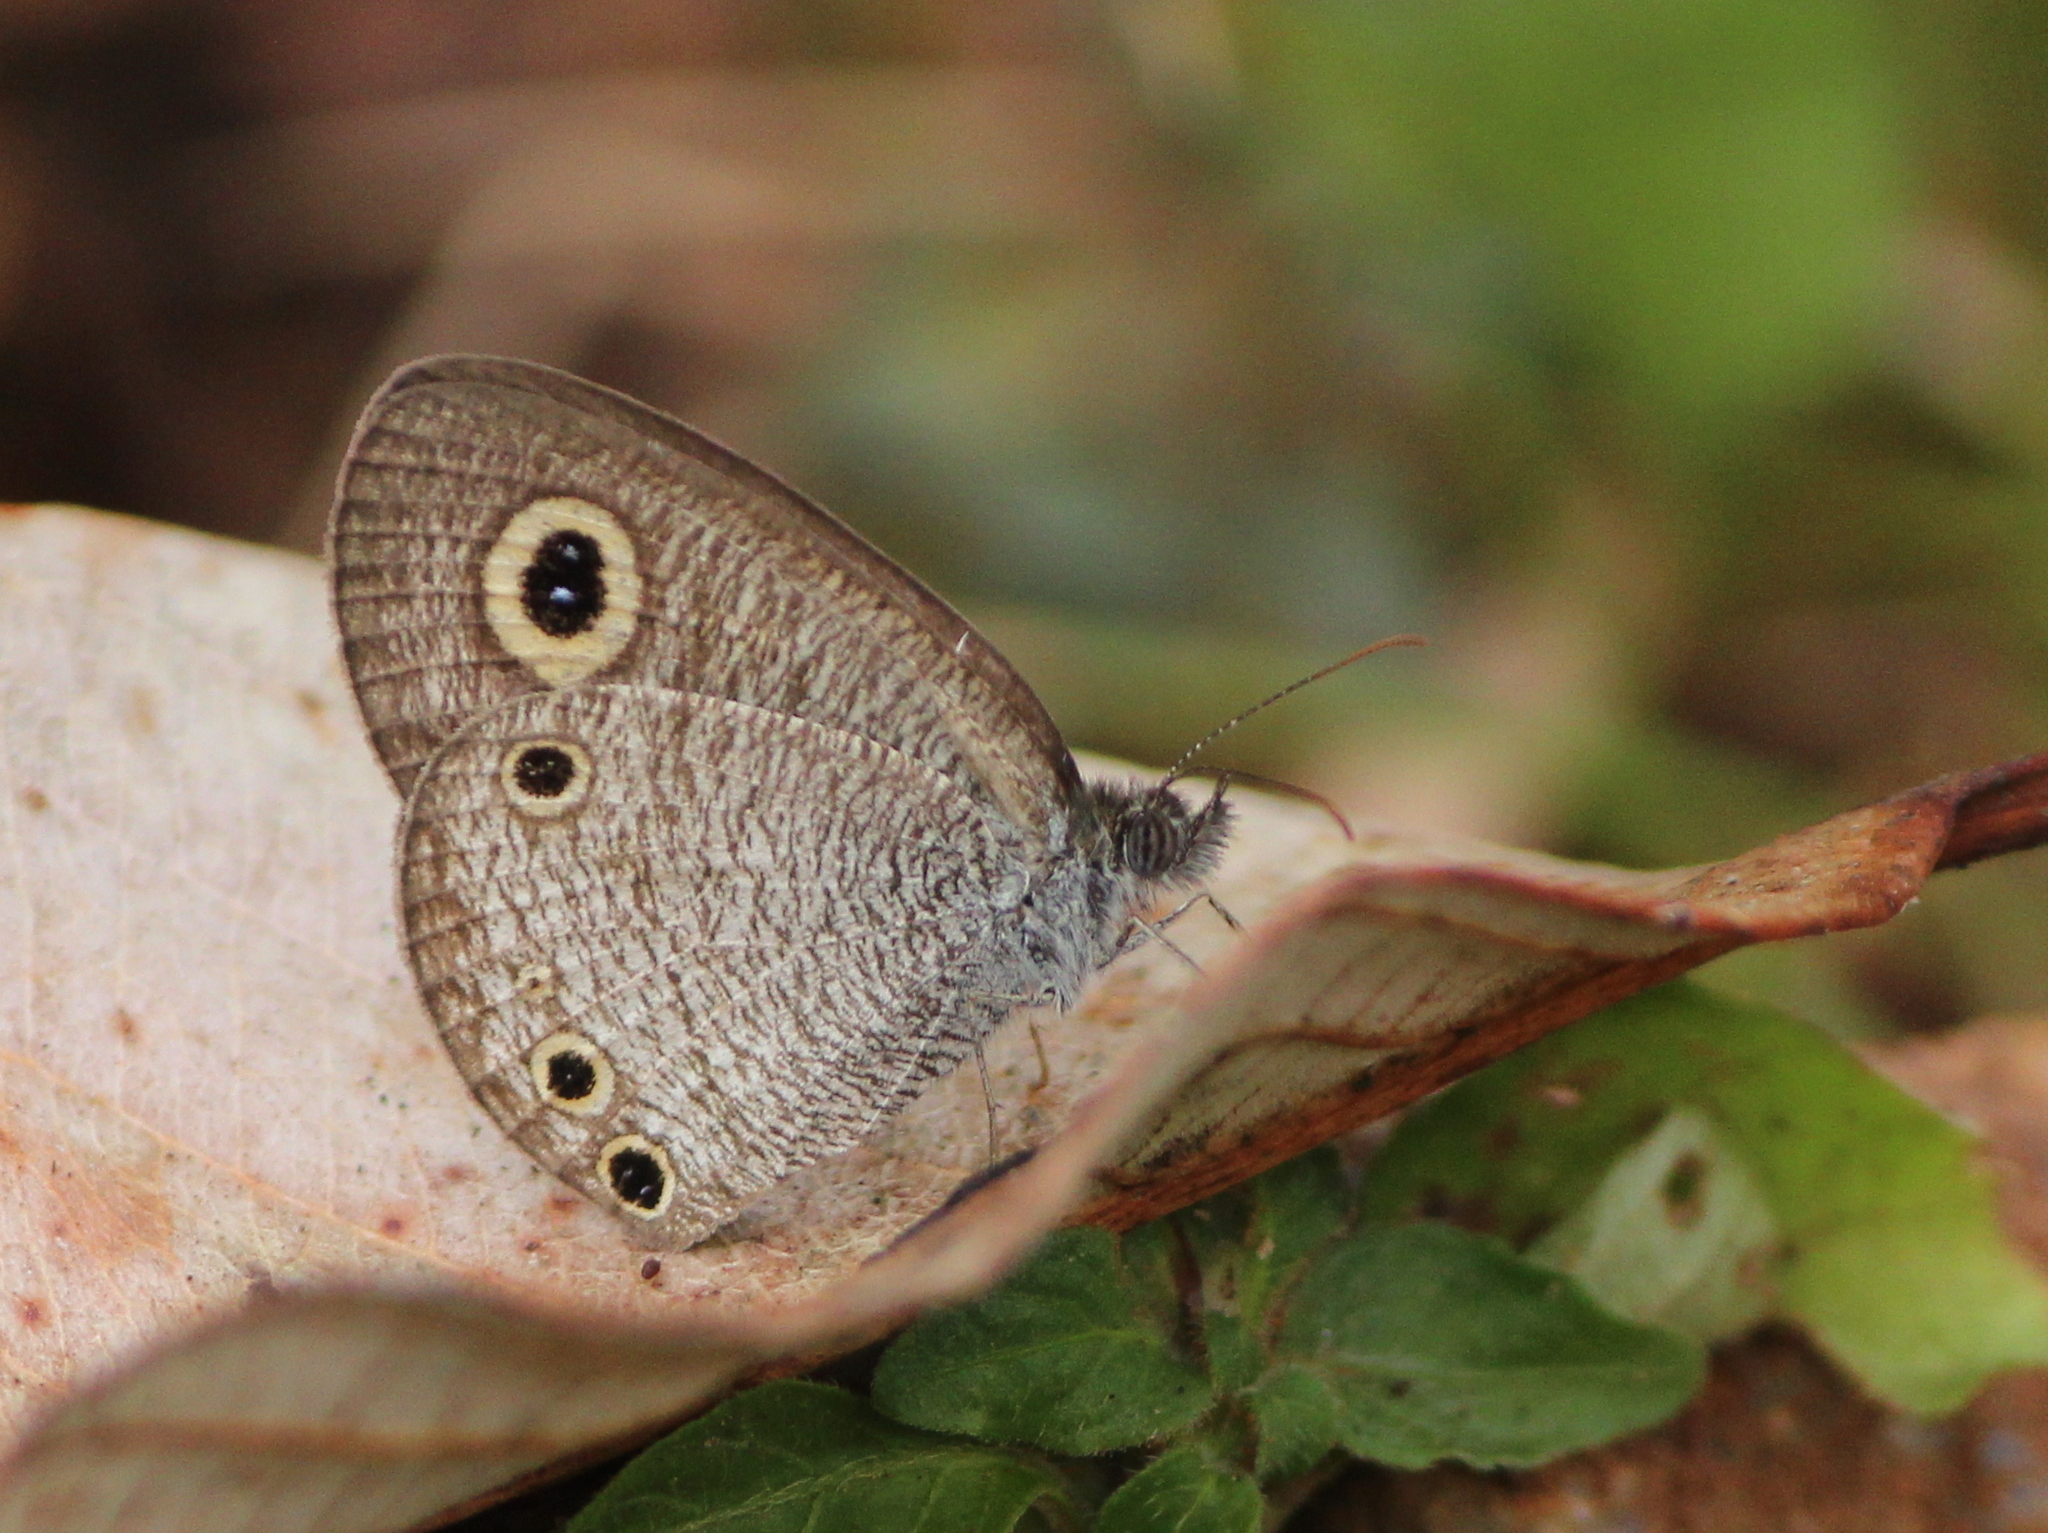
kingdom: Animalia
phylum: Arthropoda
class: Insecta
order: Lepidoptera
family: Nymphalidae
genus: Ypthima
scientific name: Ypthima huebneri
